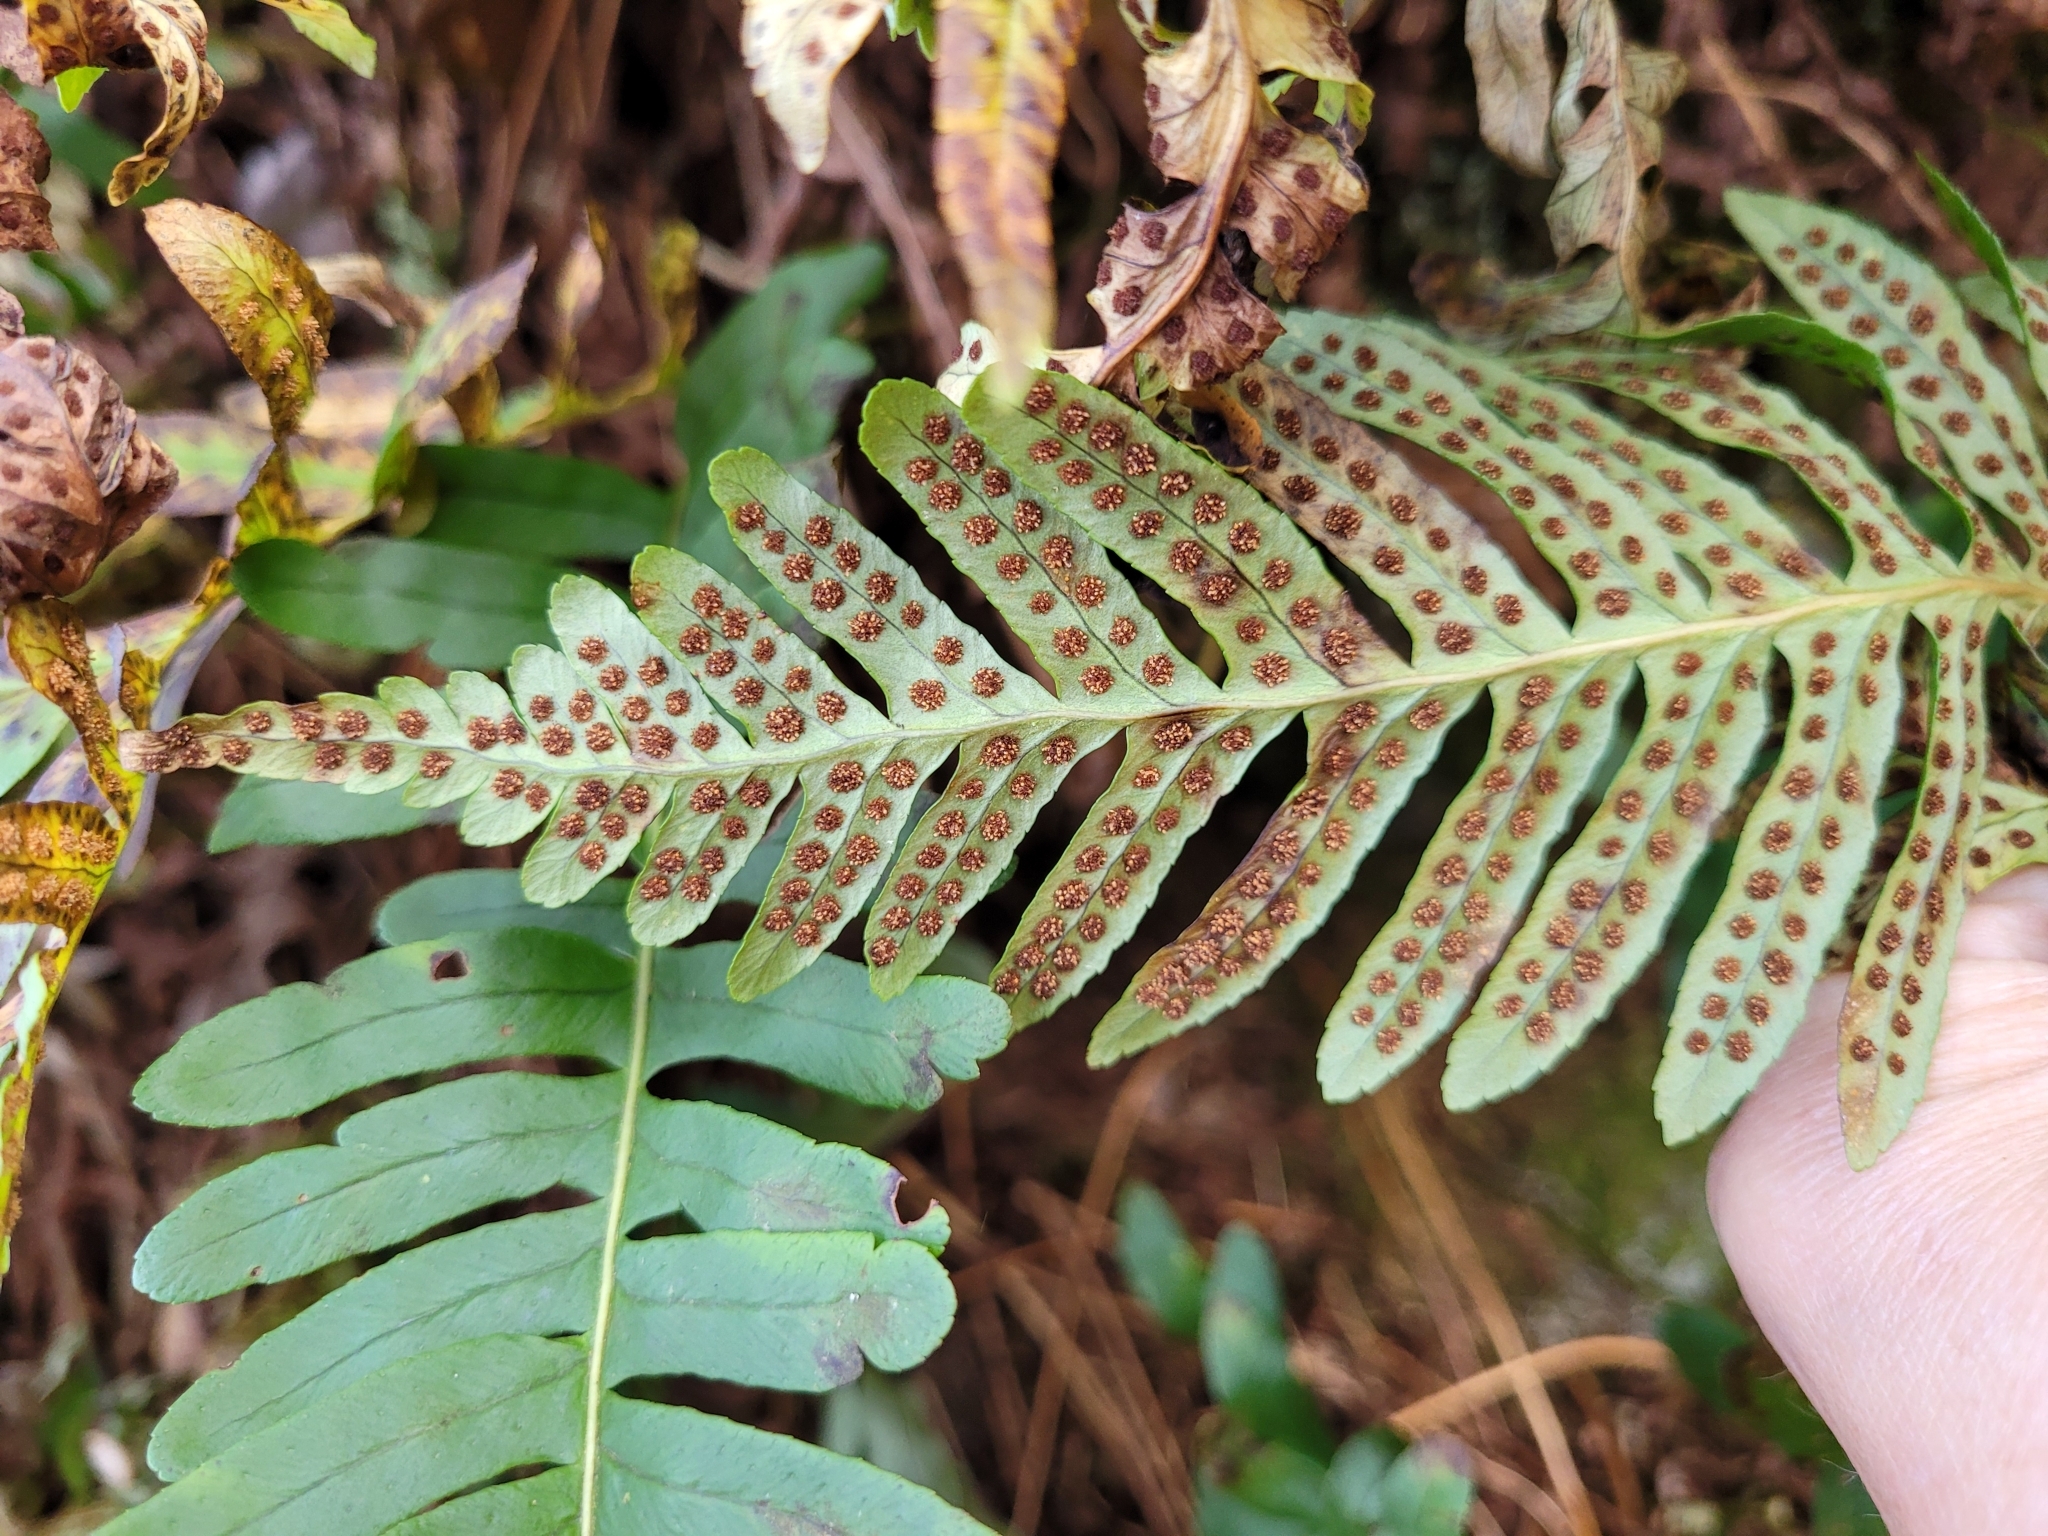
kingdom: Plantae
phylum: Tracheophyta
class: Polypodiopsida
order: Polypodiales
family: Polypodiaceae
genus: Polypodium
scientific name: Polypodium vulgare
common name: Common polypody
